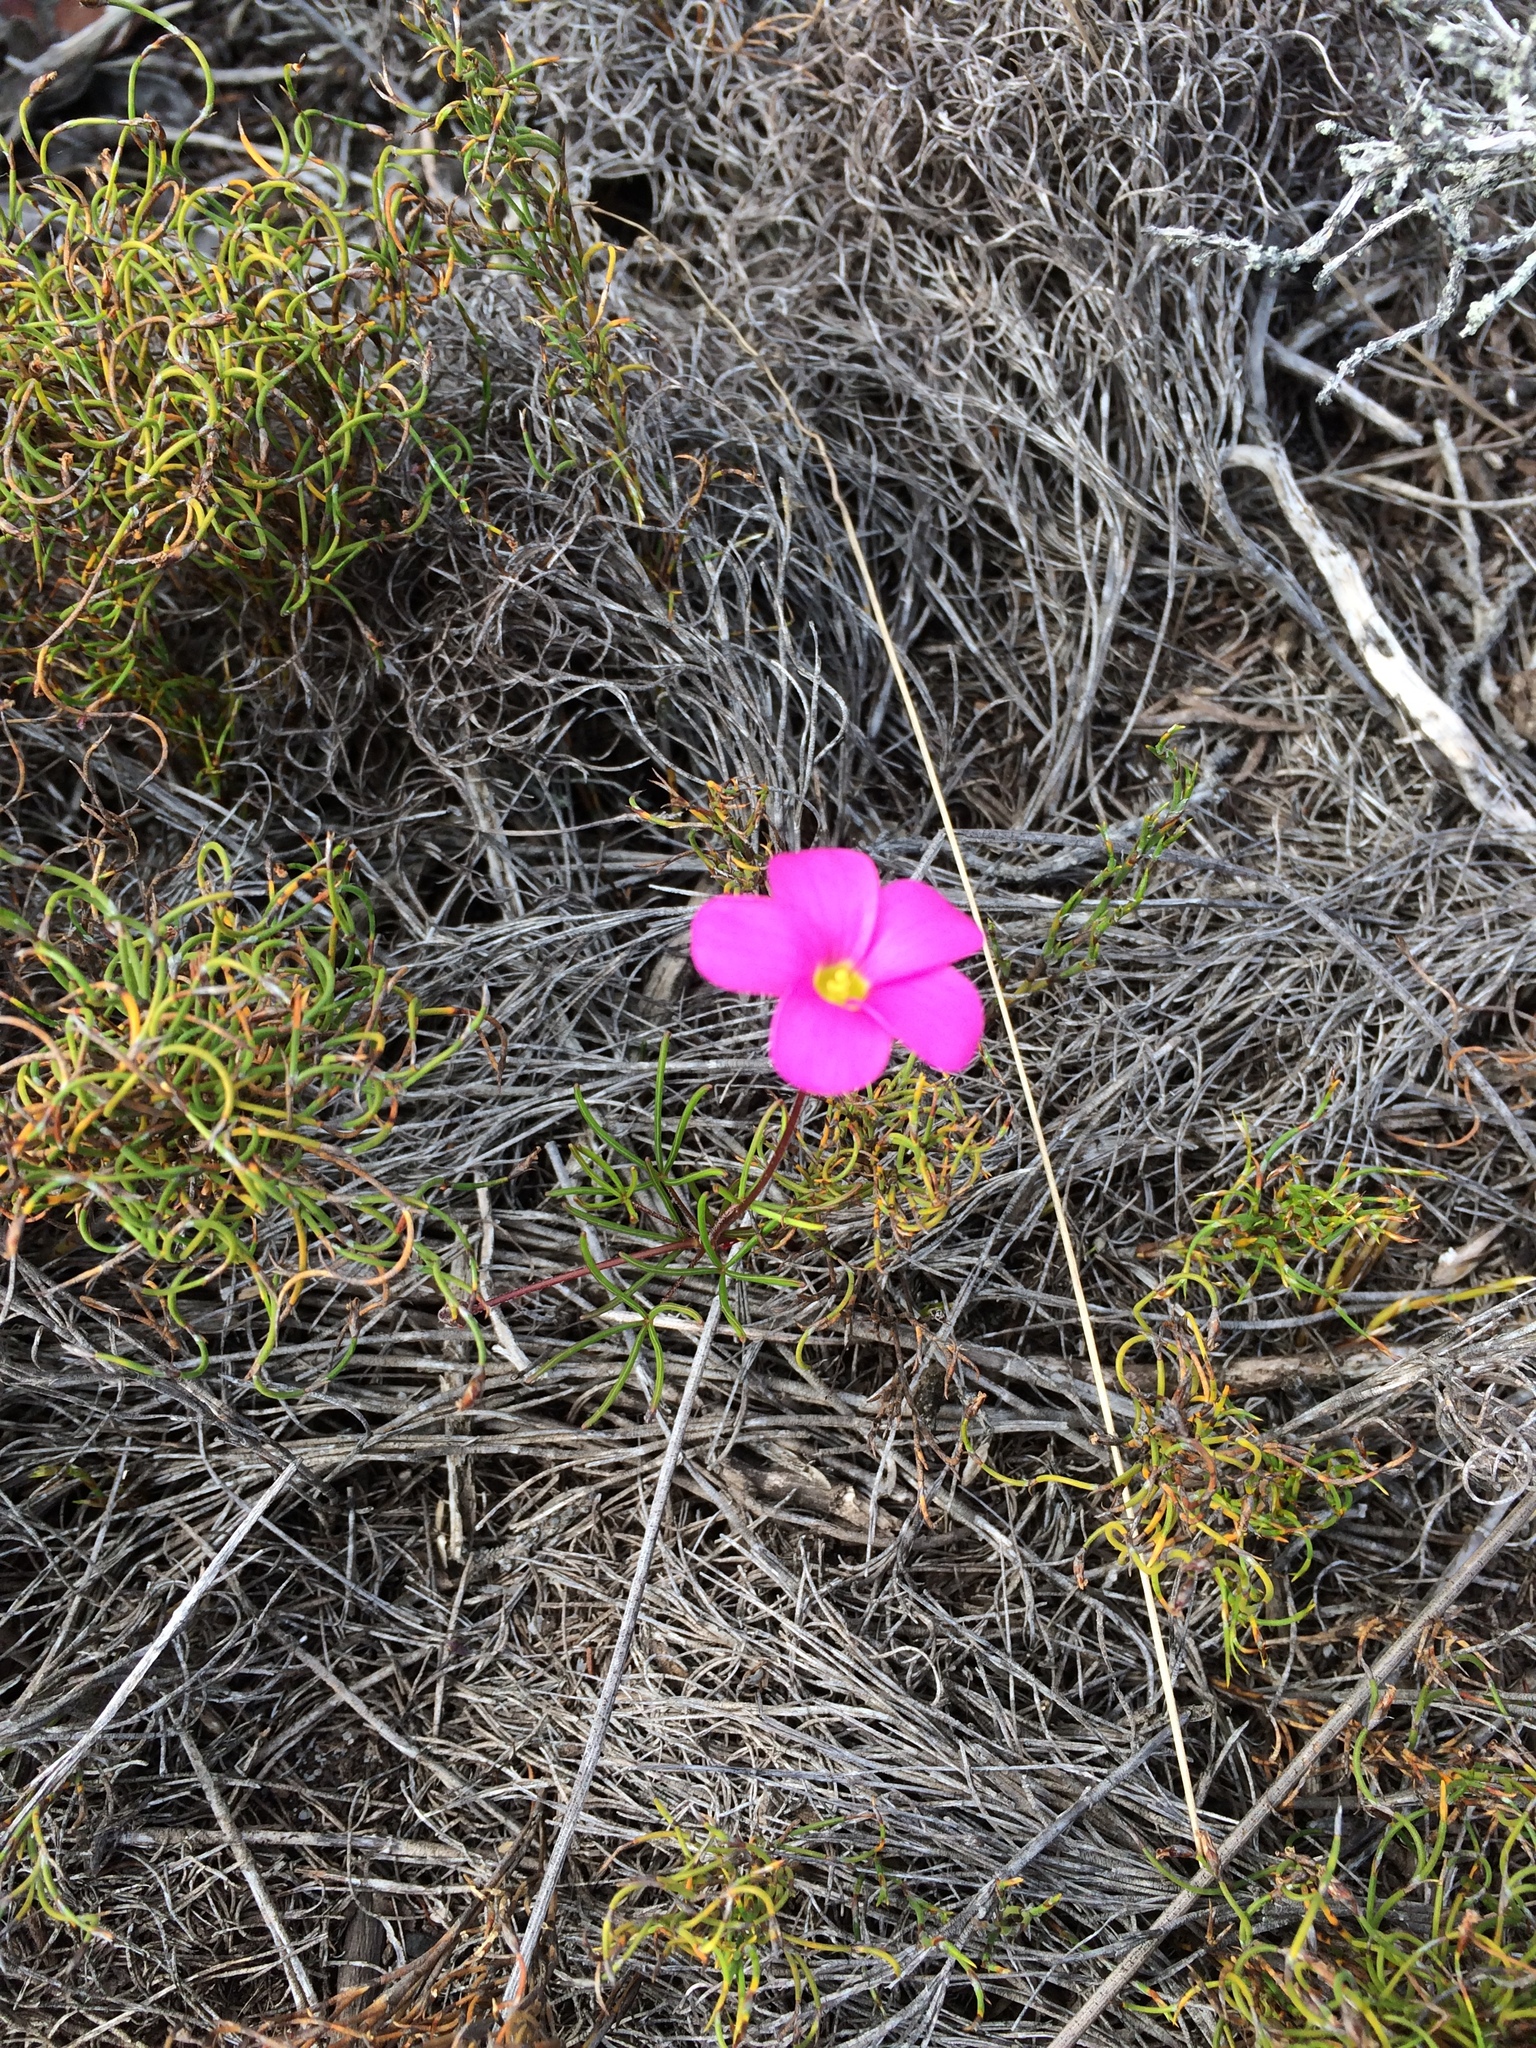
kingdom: Plantae
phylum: Tracheophyta
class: Magnoliopsida
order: Oxalidales
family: Oxalidaceae
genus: Oxalis
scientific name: Oxalis polyphylla
